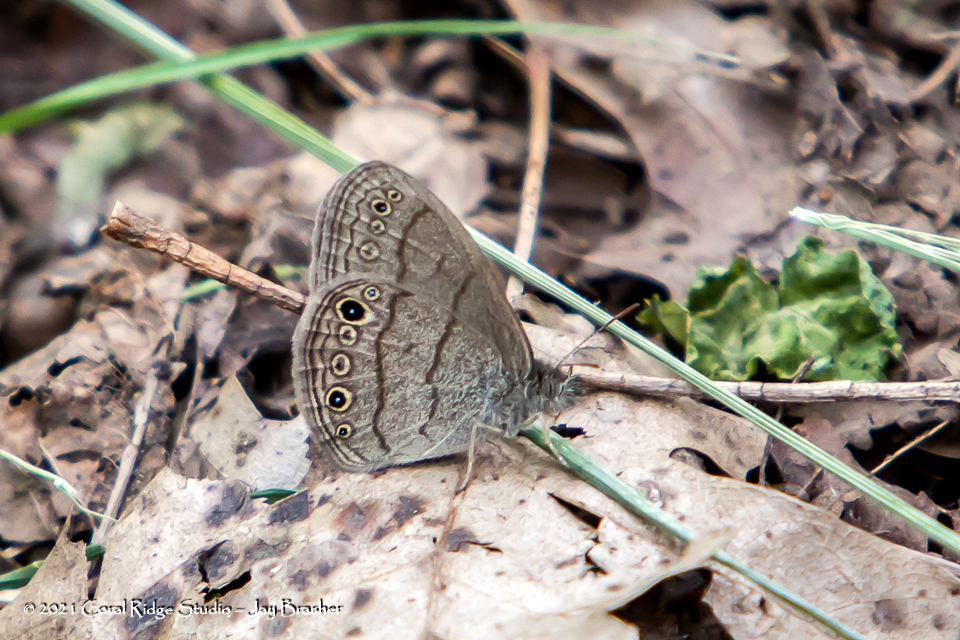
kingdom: Animalia
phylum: Arthropoda
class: Insecta
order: Lepidoptera
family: Nymphalidae
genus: Hermeuptychia
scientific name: Hermeuptychia hermes
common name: Hermes satyr
